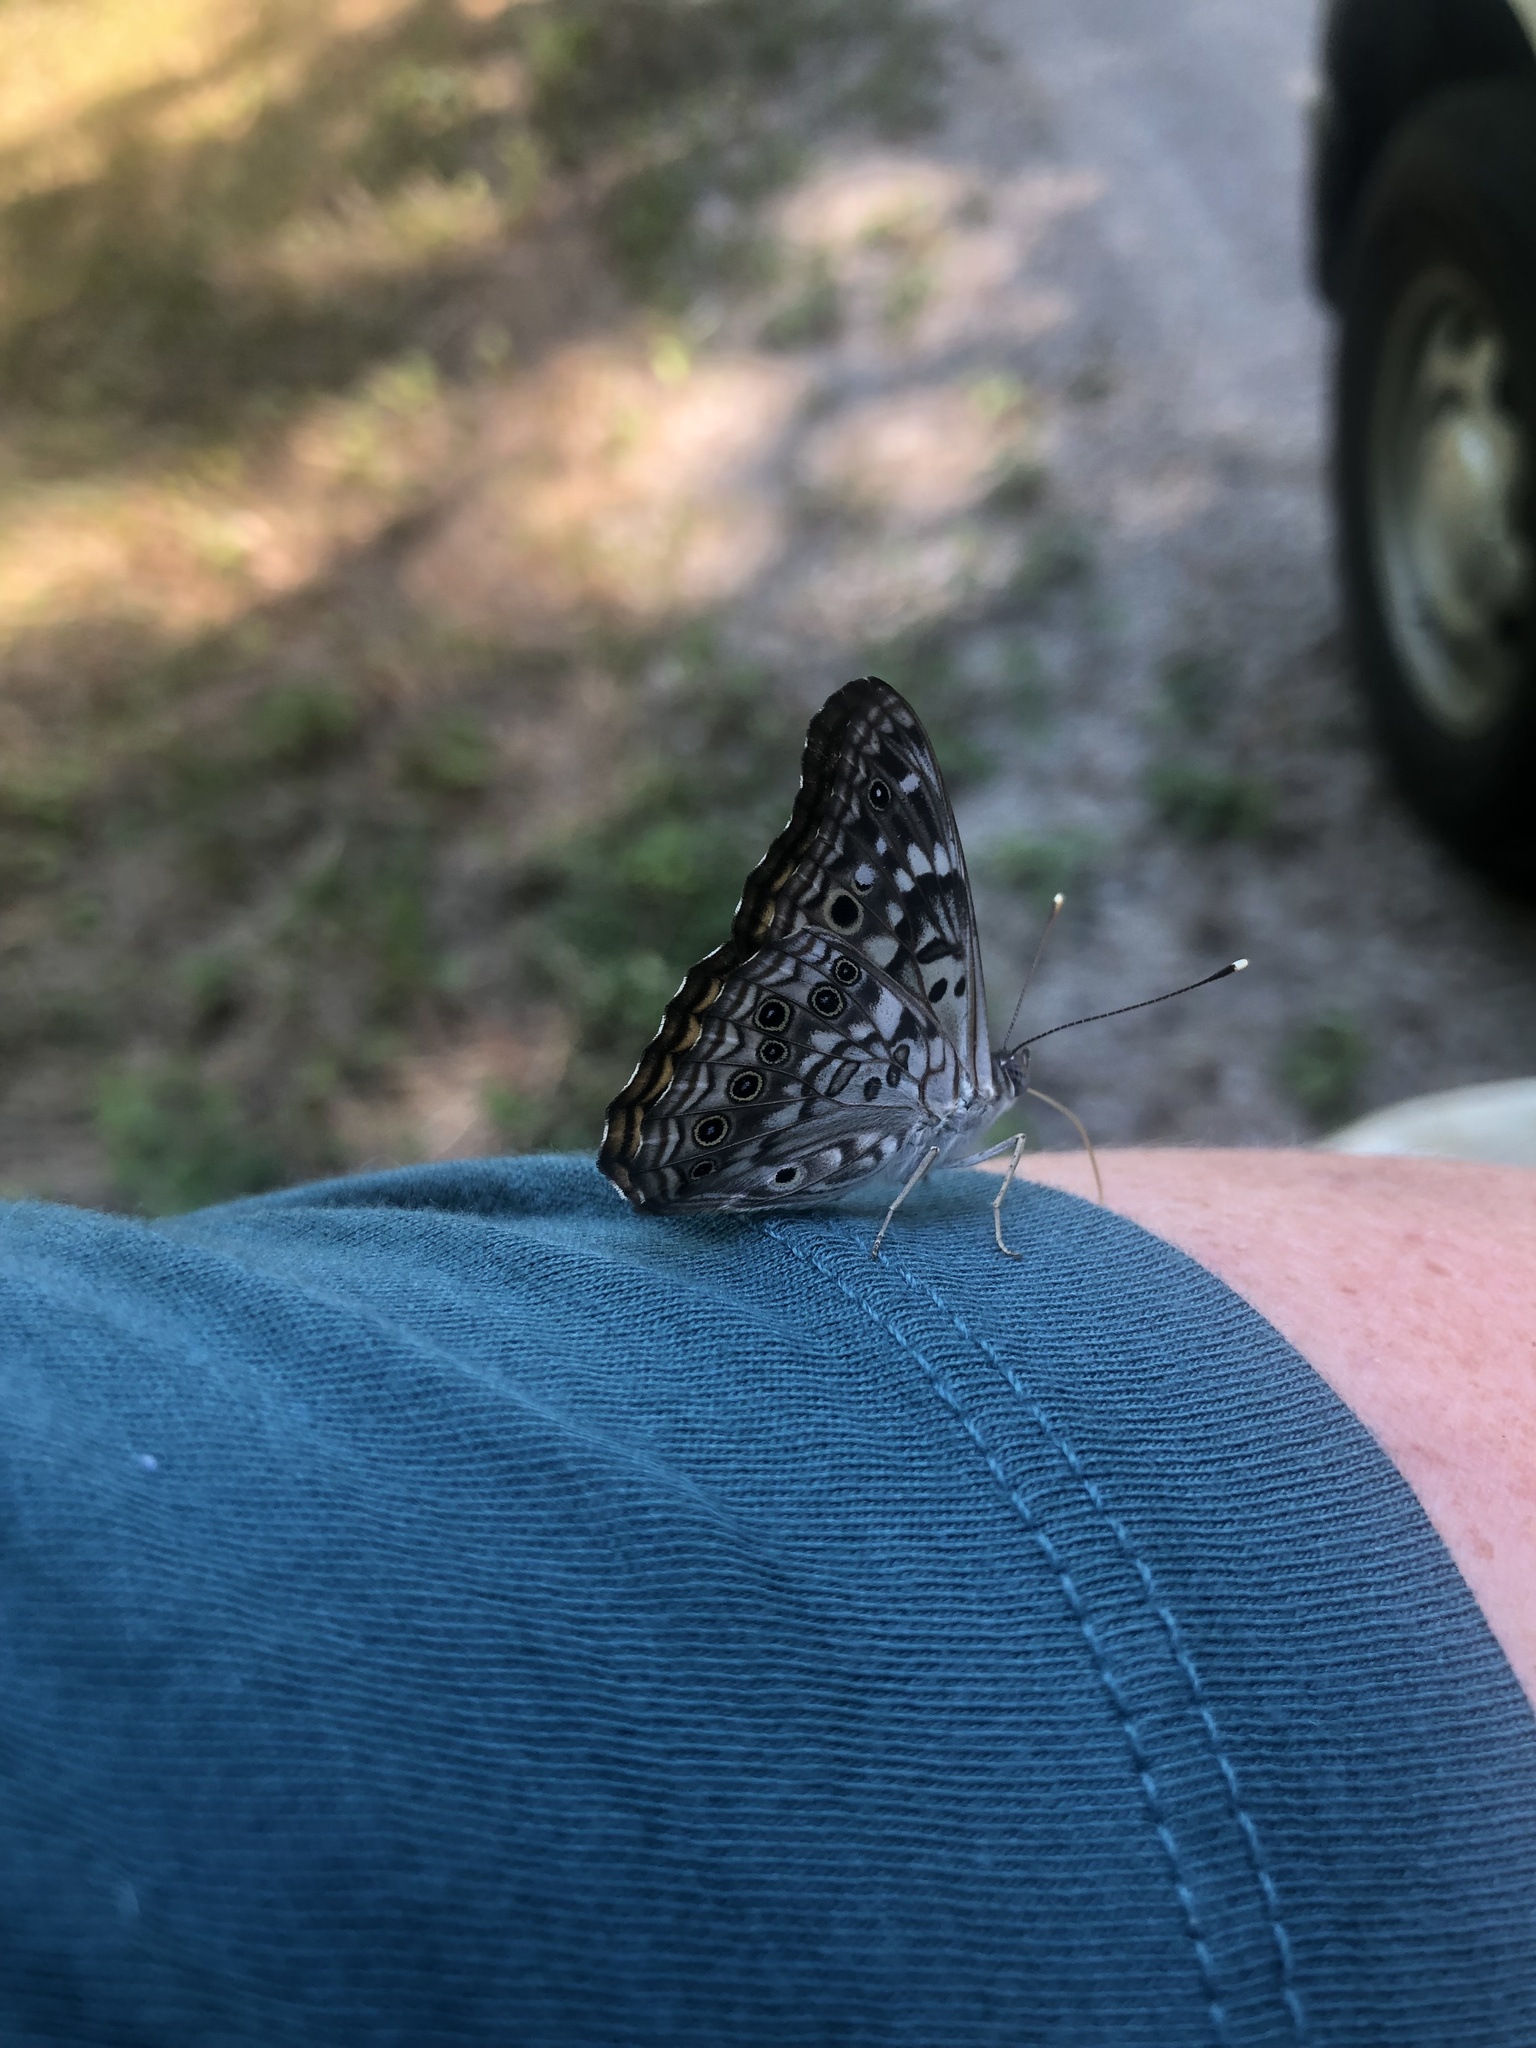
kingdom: Animalia
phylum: Arthropoda
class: Insecta
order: Lepidoptera
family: Nymphalidae
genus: Asterocampa
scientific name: Asterocampa celtis
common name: Hackberry emperor
